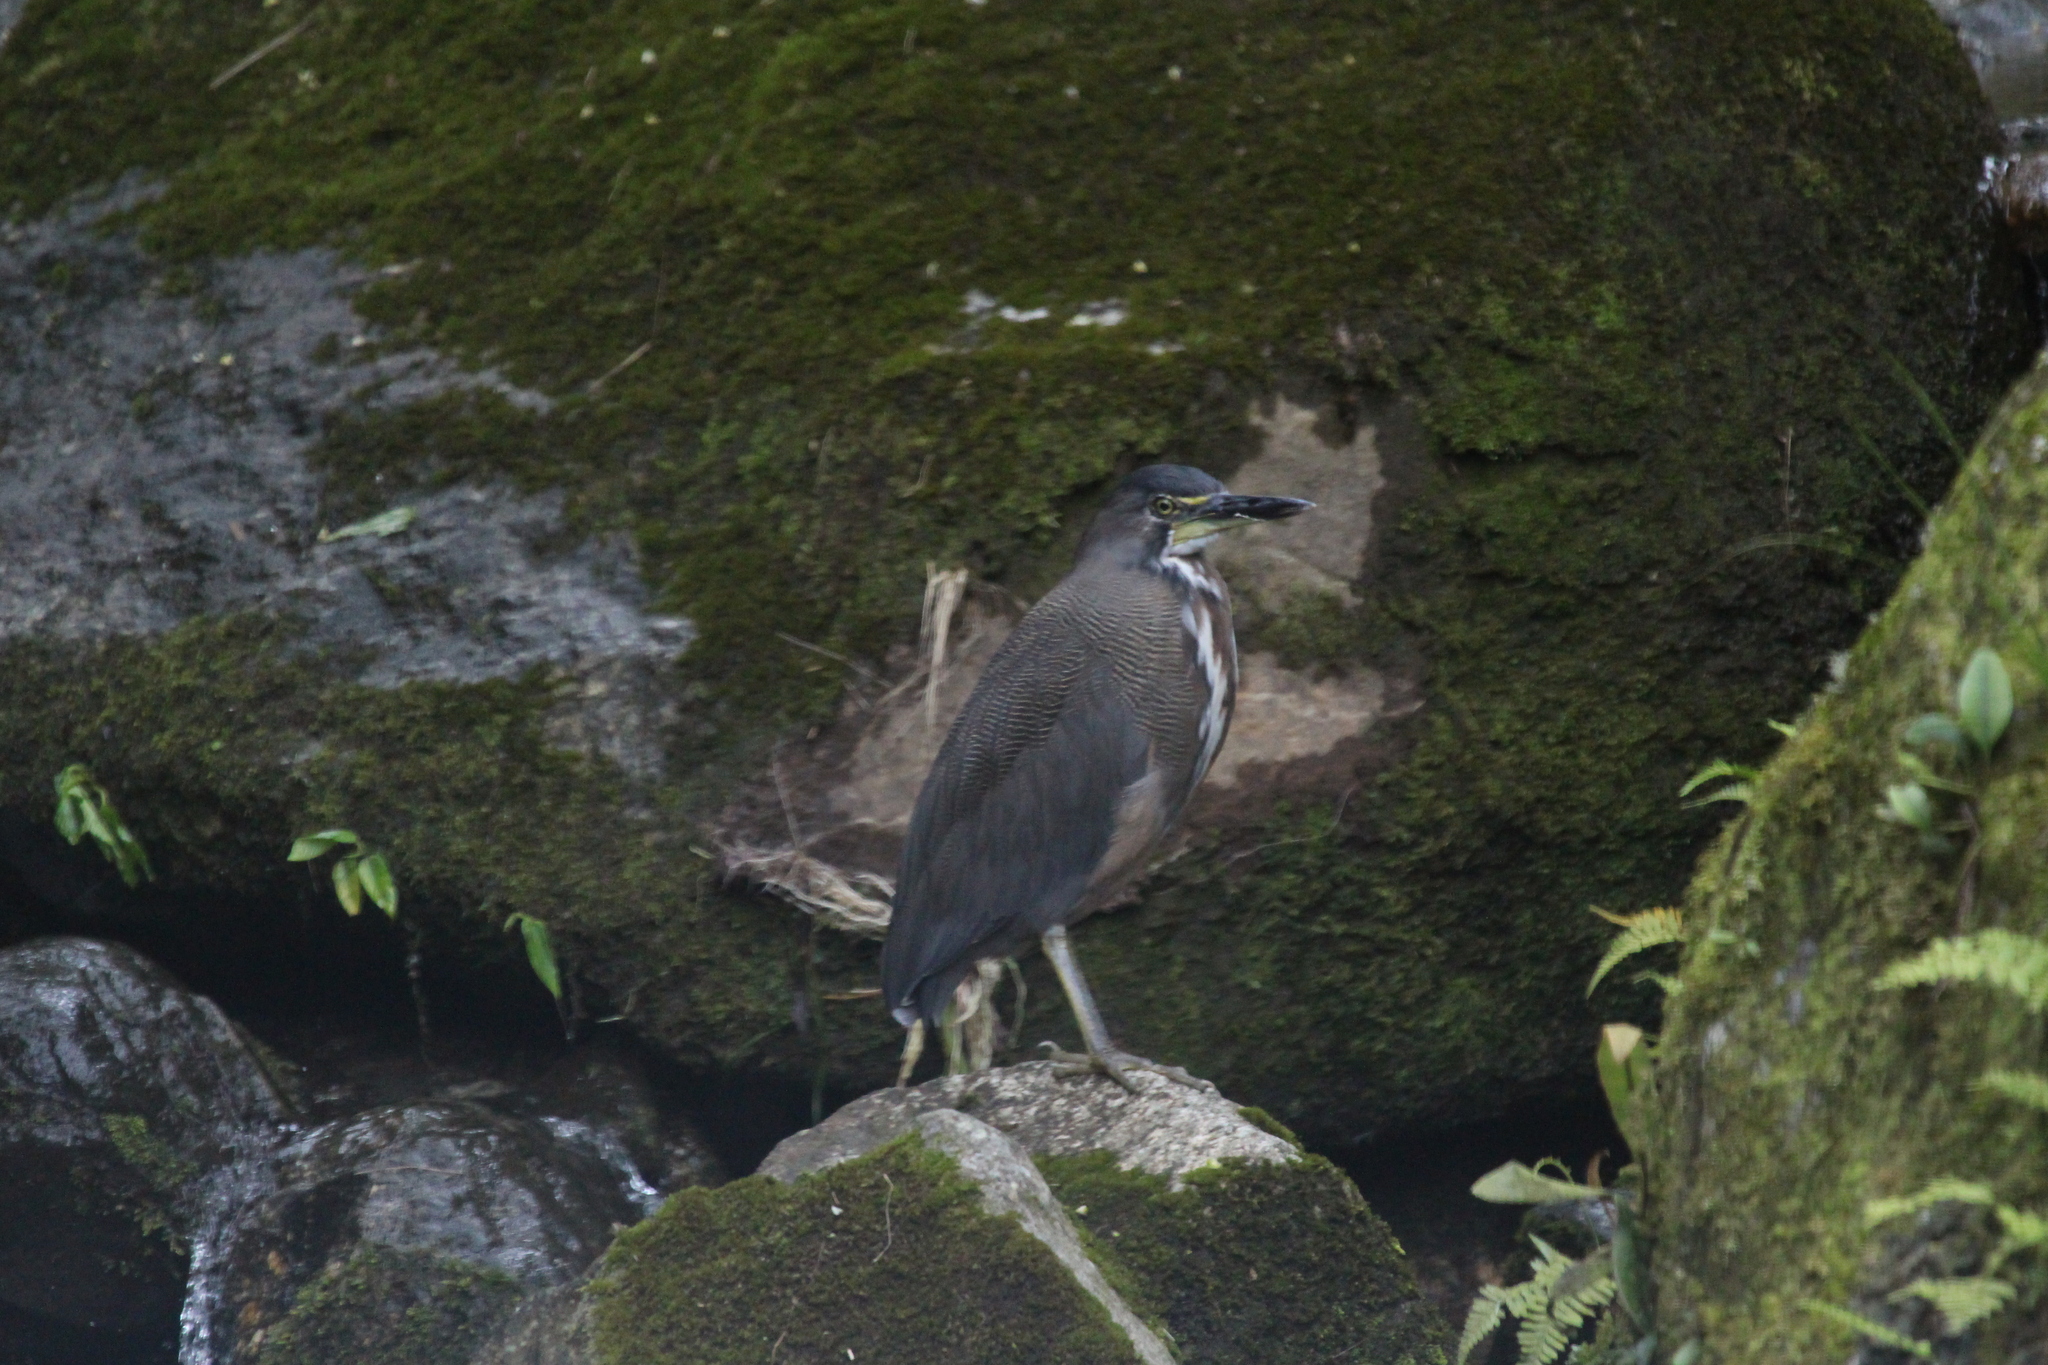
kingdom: Animalia
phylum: Chordata
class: Aves
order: Pelecaniformes
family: Ardeidae
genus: Tigrisoma
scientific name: Tigrisoma fasciatum
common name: Fasciated tiger-heron
